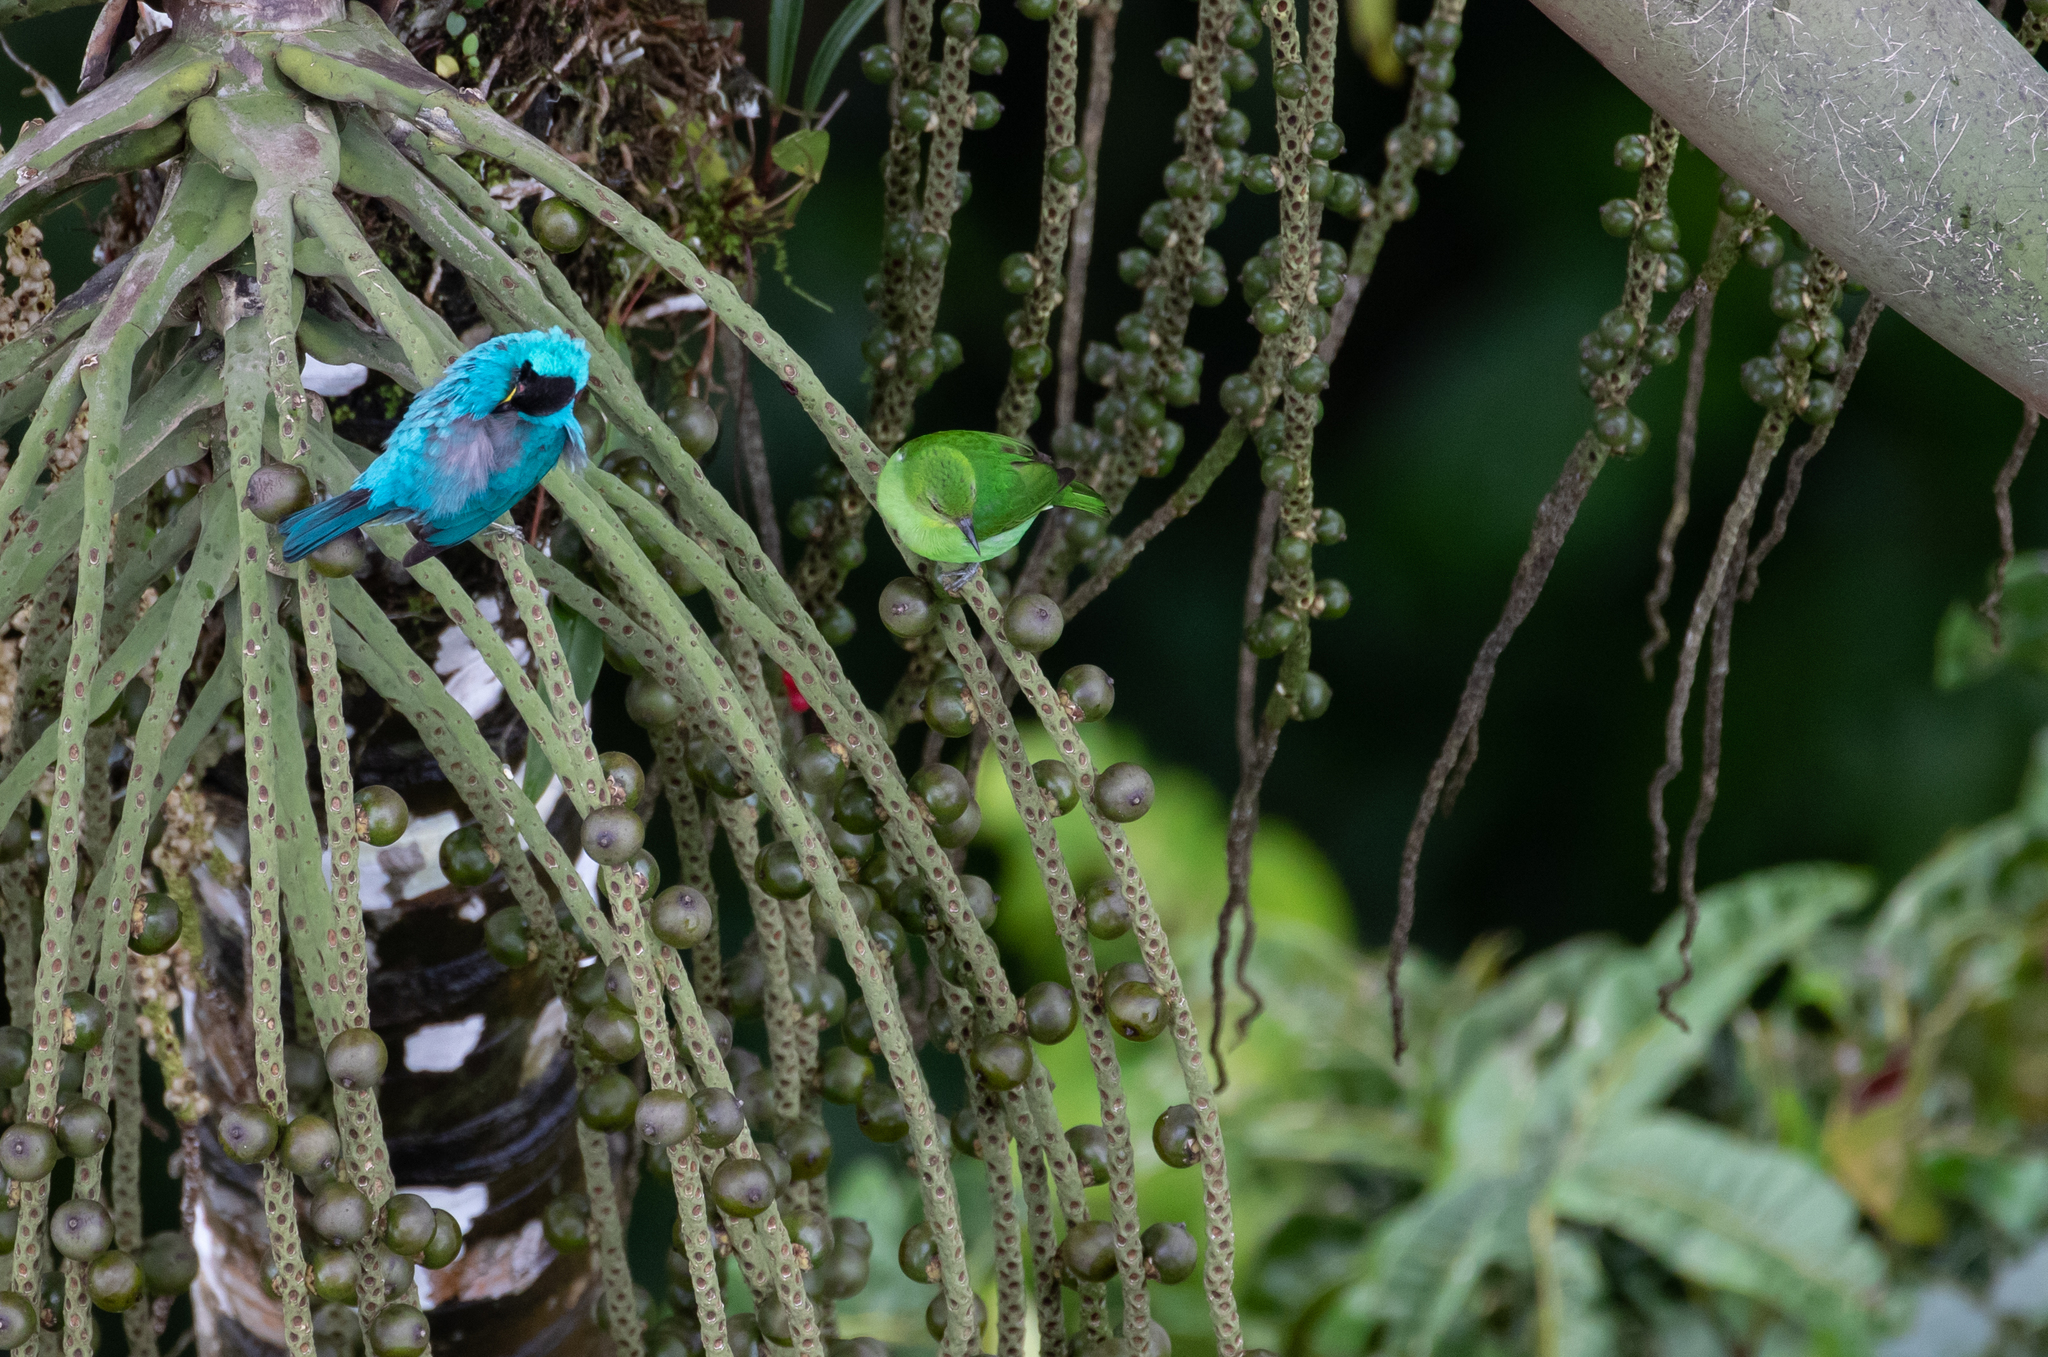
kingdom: Animalia
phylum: Chordata
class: Aves
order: Passeriformes
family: Thraupidae
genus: Chlorophanes
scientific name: Chlorophanes spiza
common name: Green honeycreeper
